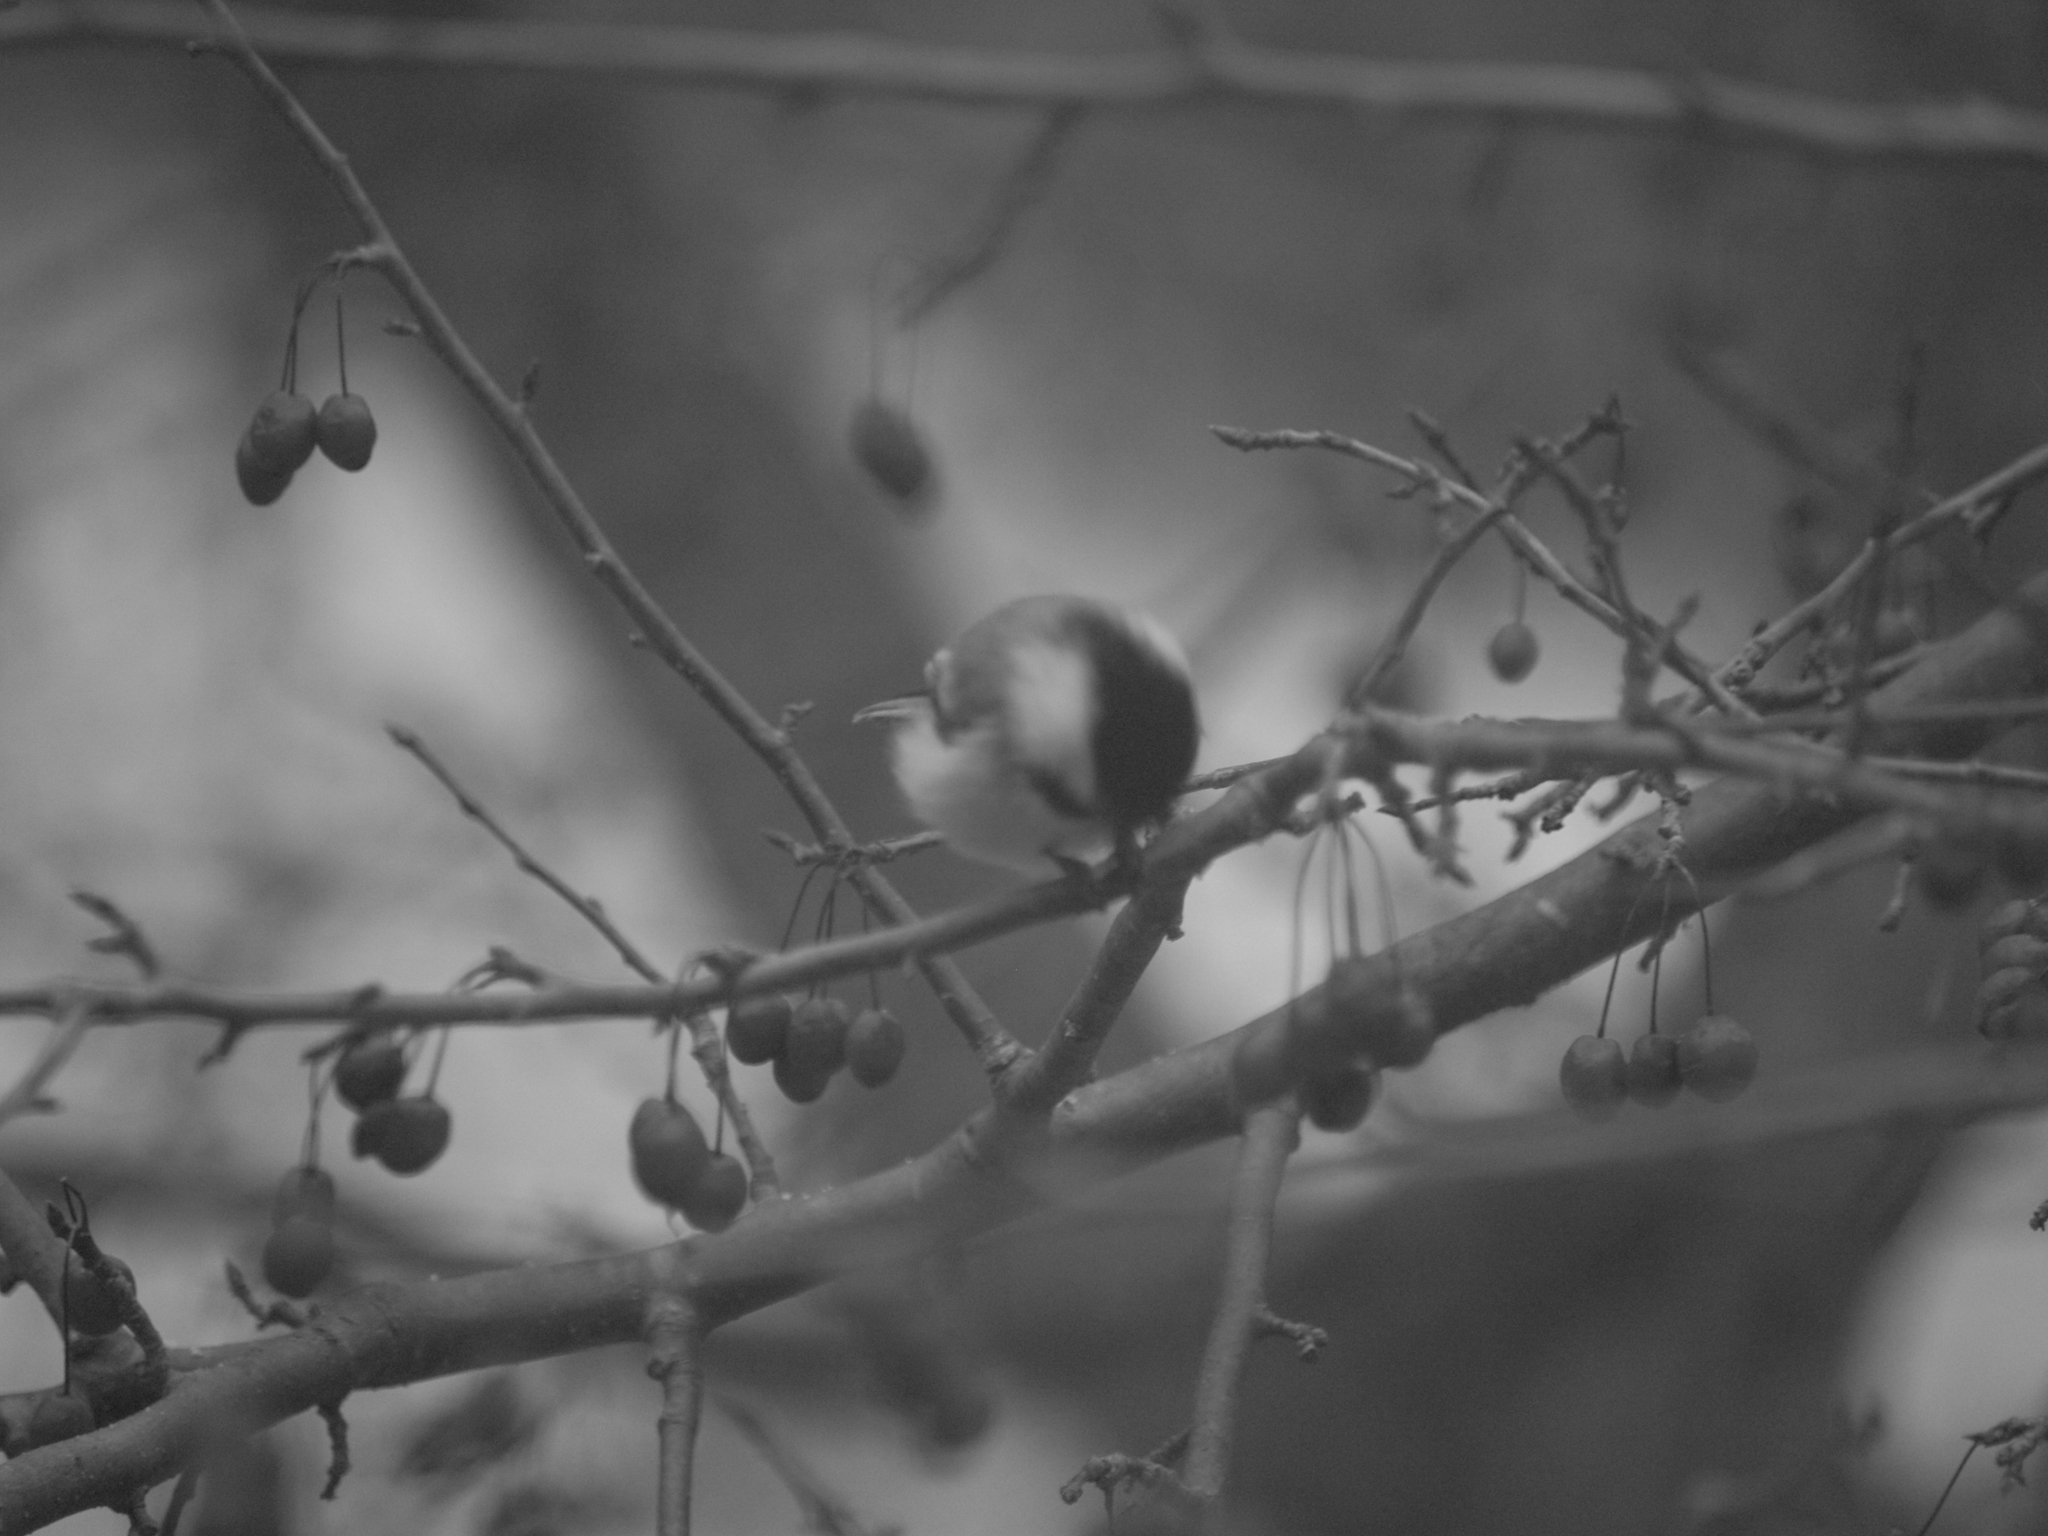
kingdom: Animalia
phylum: Chordata
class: Aves
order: Passeriformes
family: Paridae
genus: Poecile
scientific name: Poecile atricapillus
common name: Black-capped chickadee
